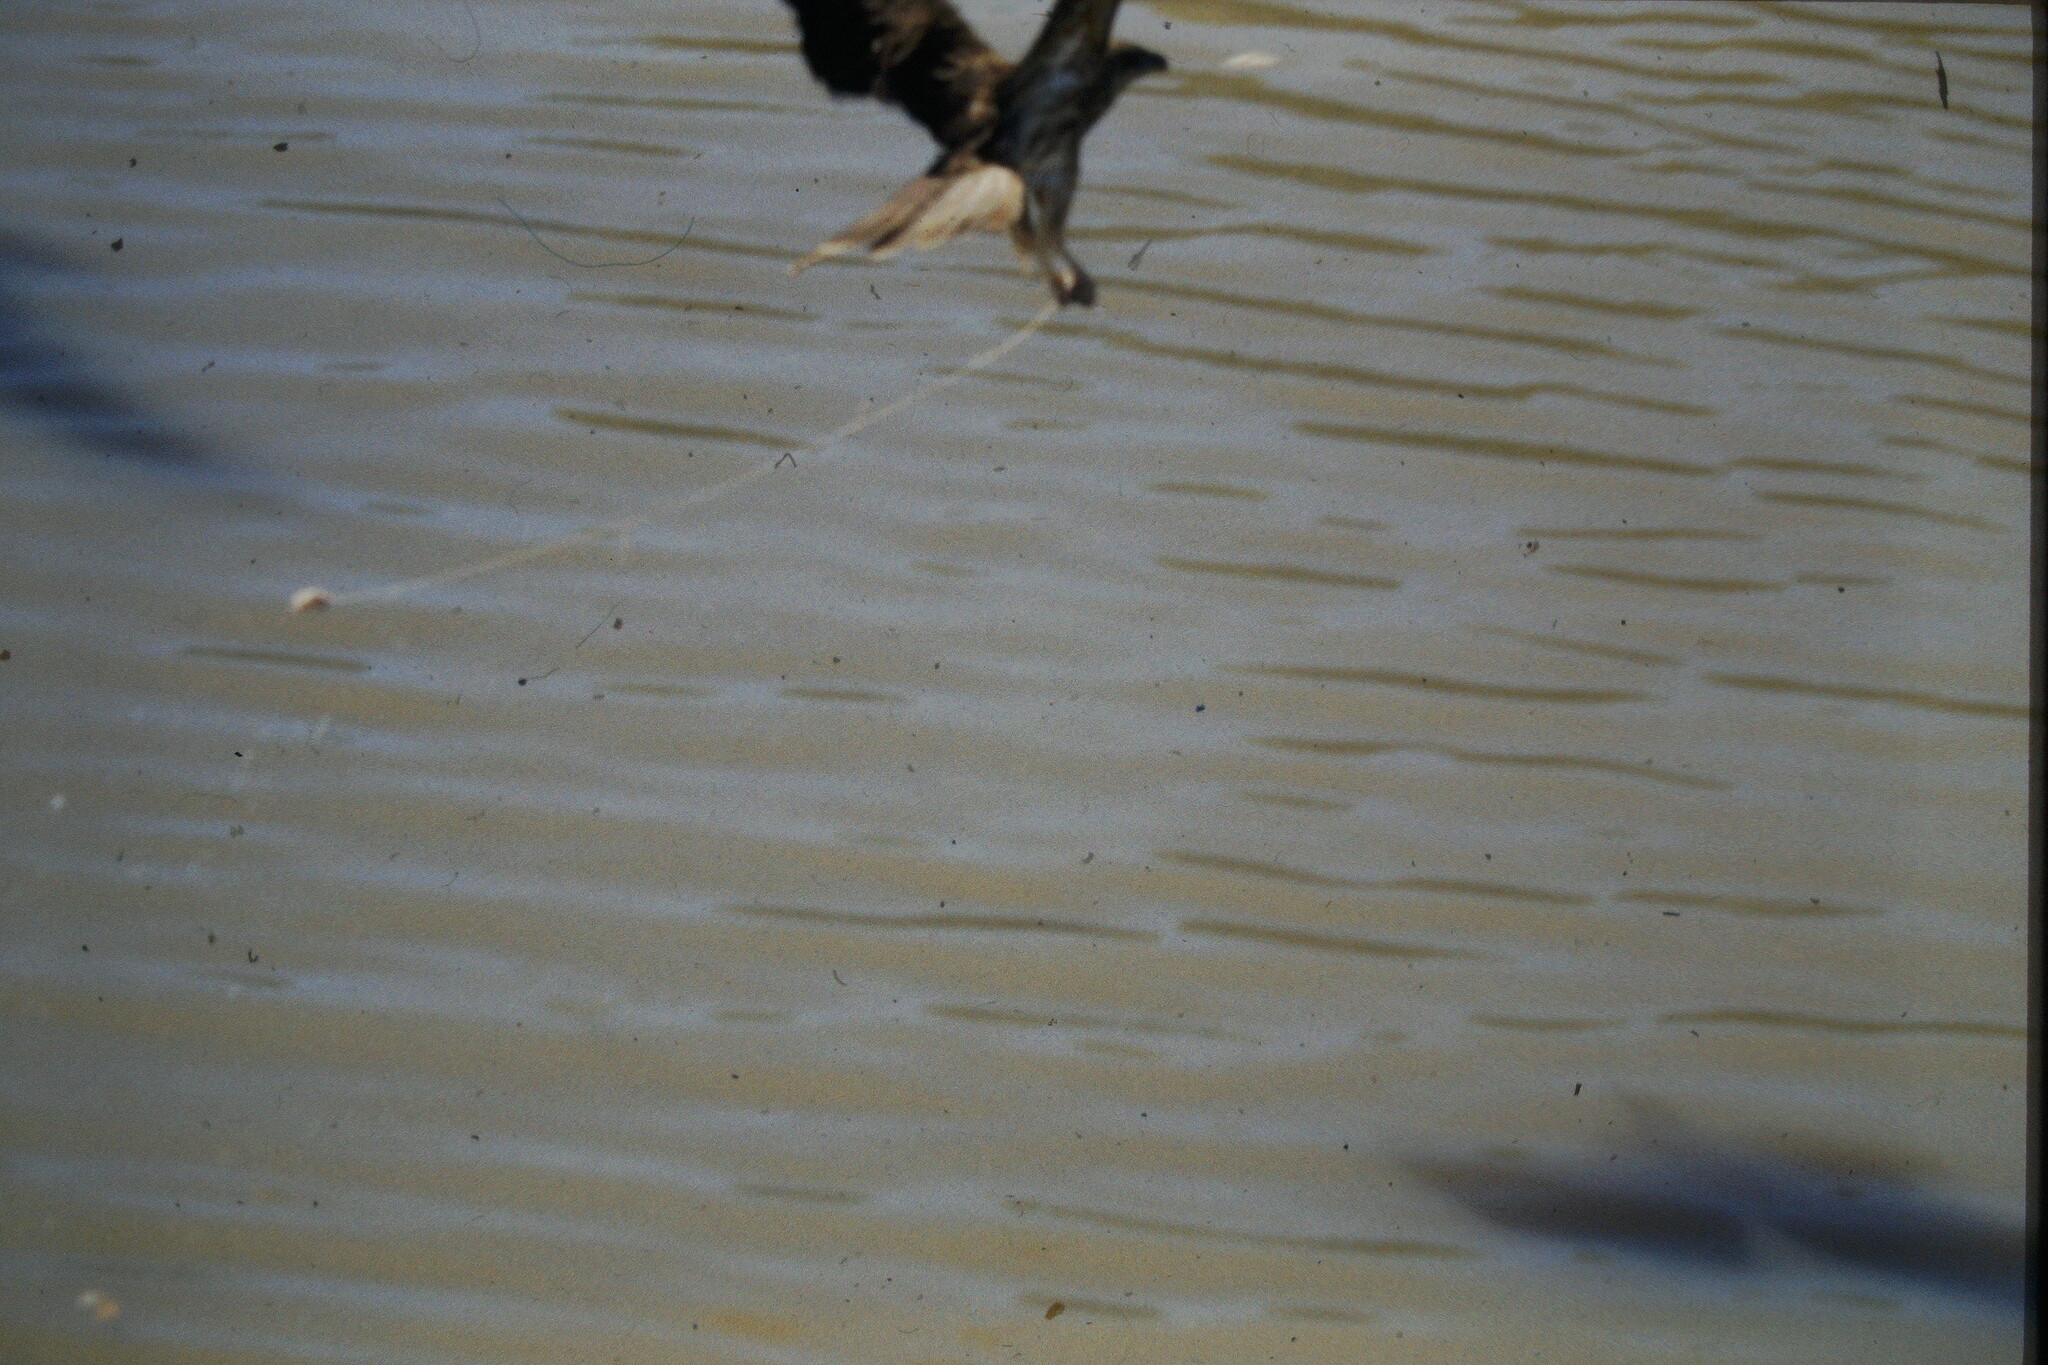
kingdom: Animalia
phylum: Chordata
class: Aves
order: Accipitriformes
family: Accipitridae
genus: Milvus
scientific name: Milvus migrans
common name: Black kite
